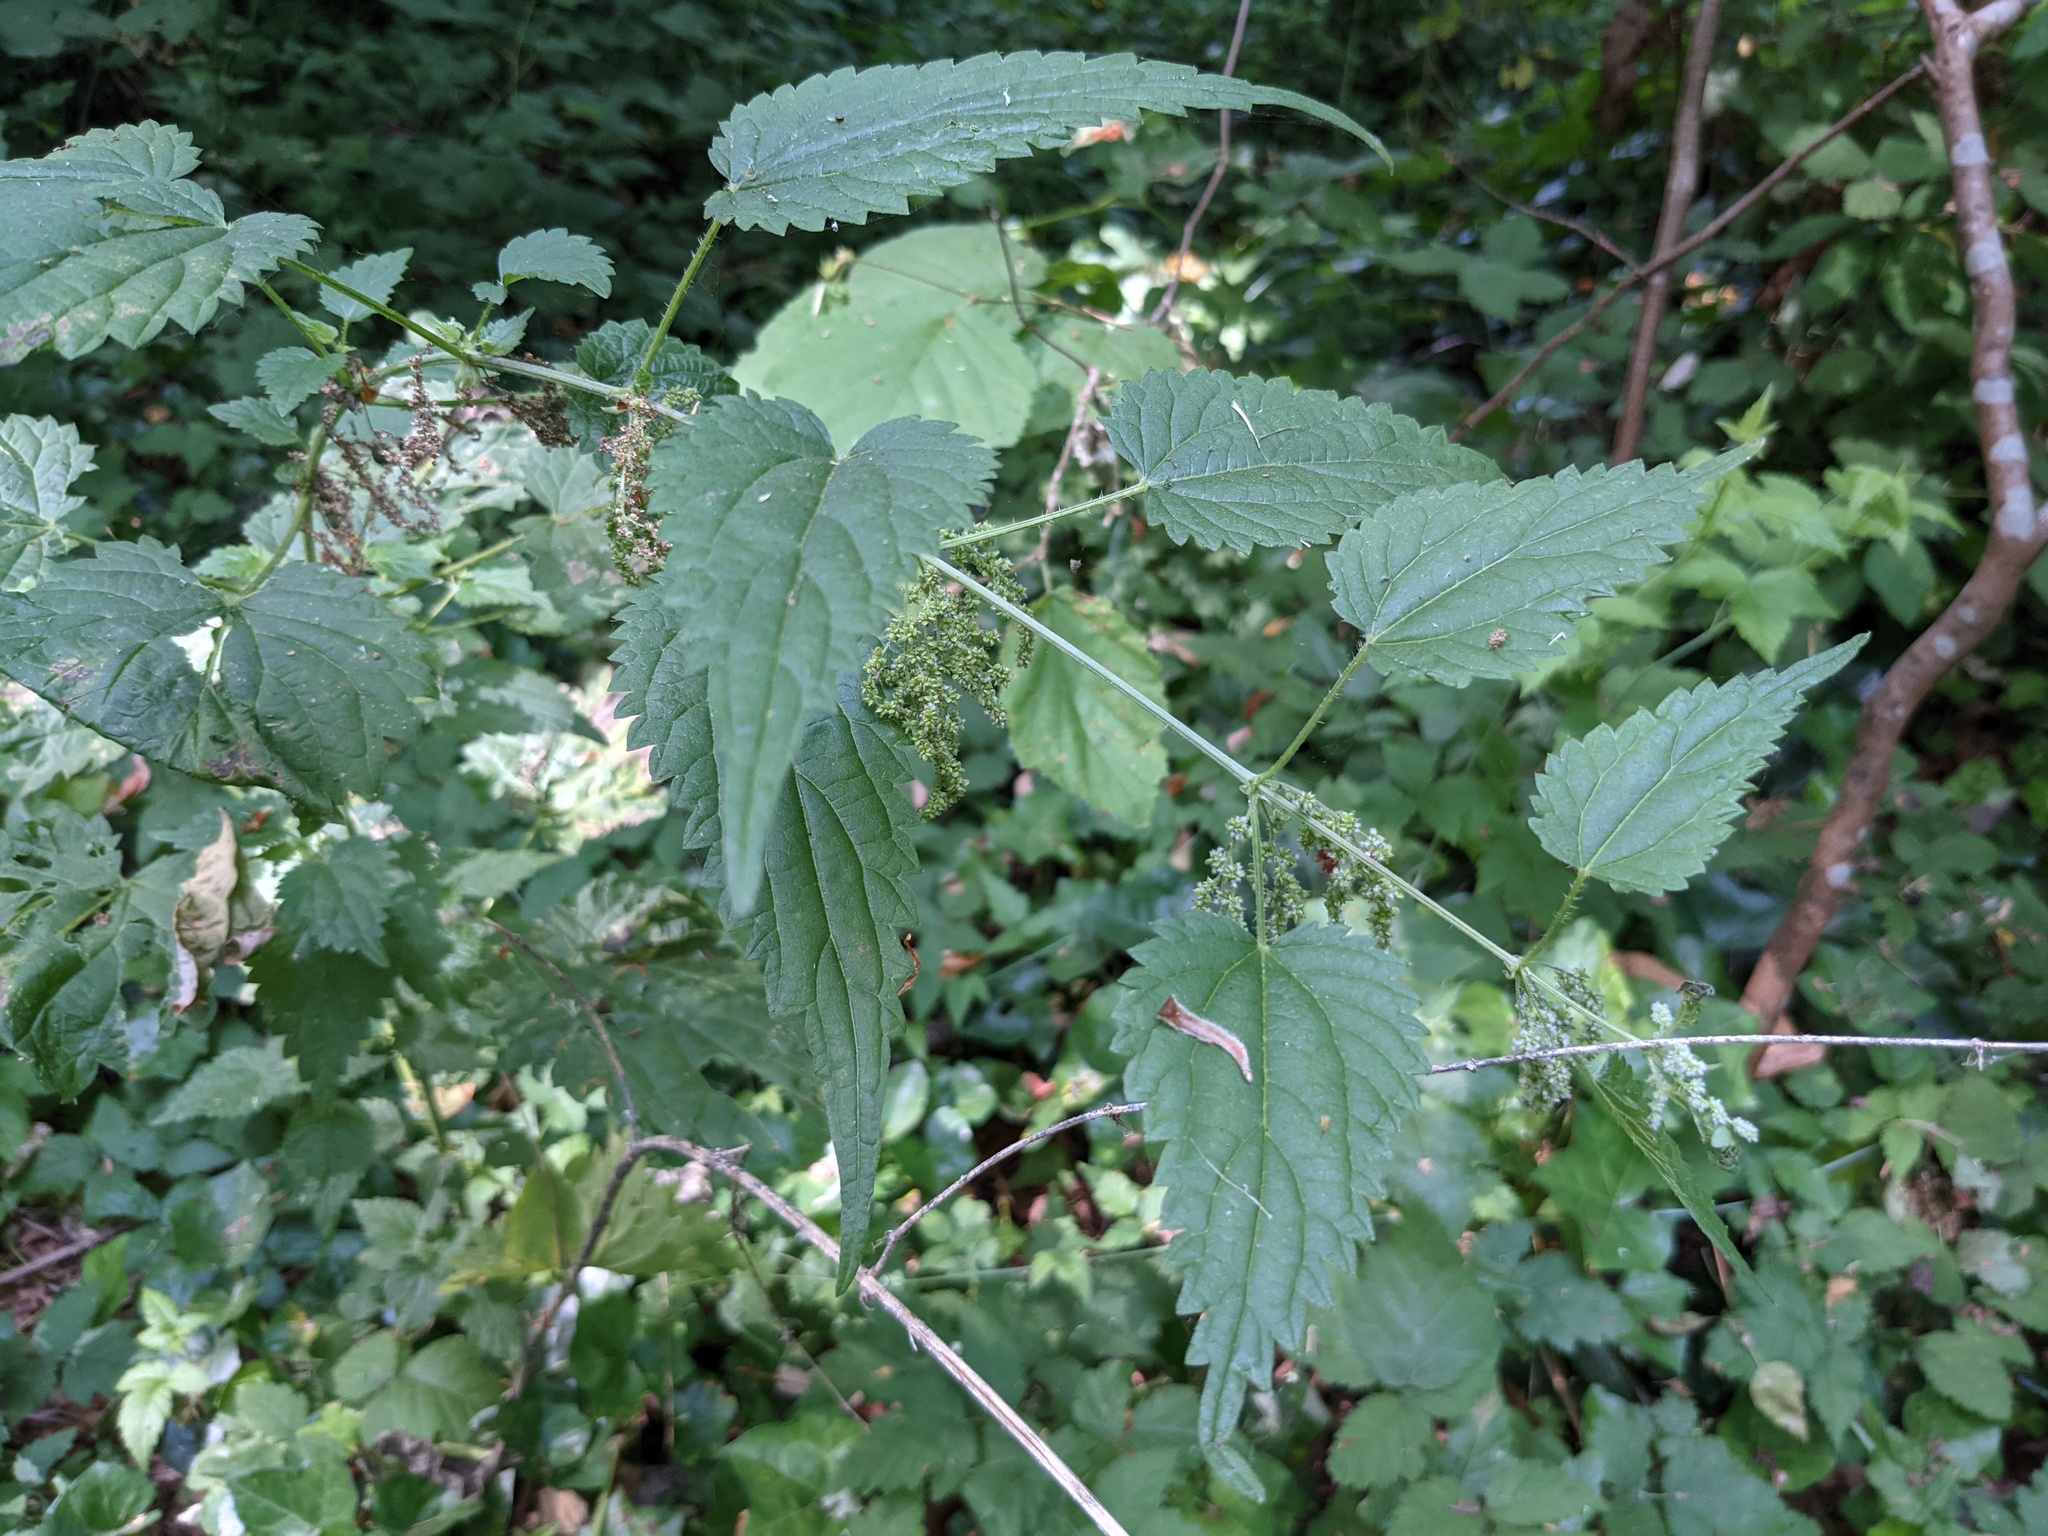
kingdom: Plantae
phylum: Tracheophyta
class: Magnoliopsida
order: Rosales
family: Urticaceae
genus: Urtica
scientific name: Urtica gracilis
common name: Slender stinging nettle
